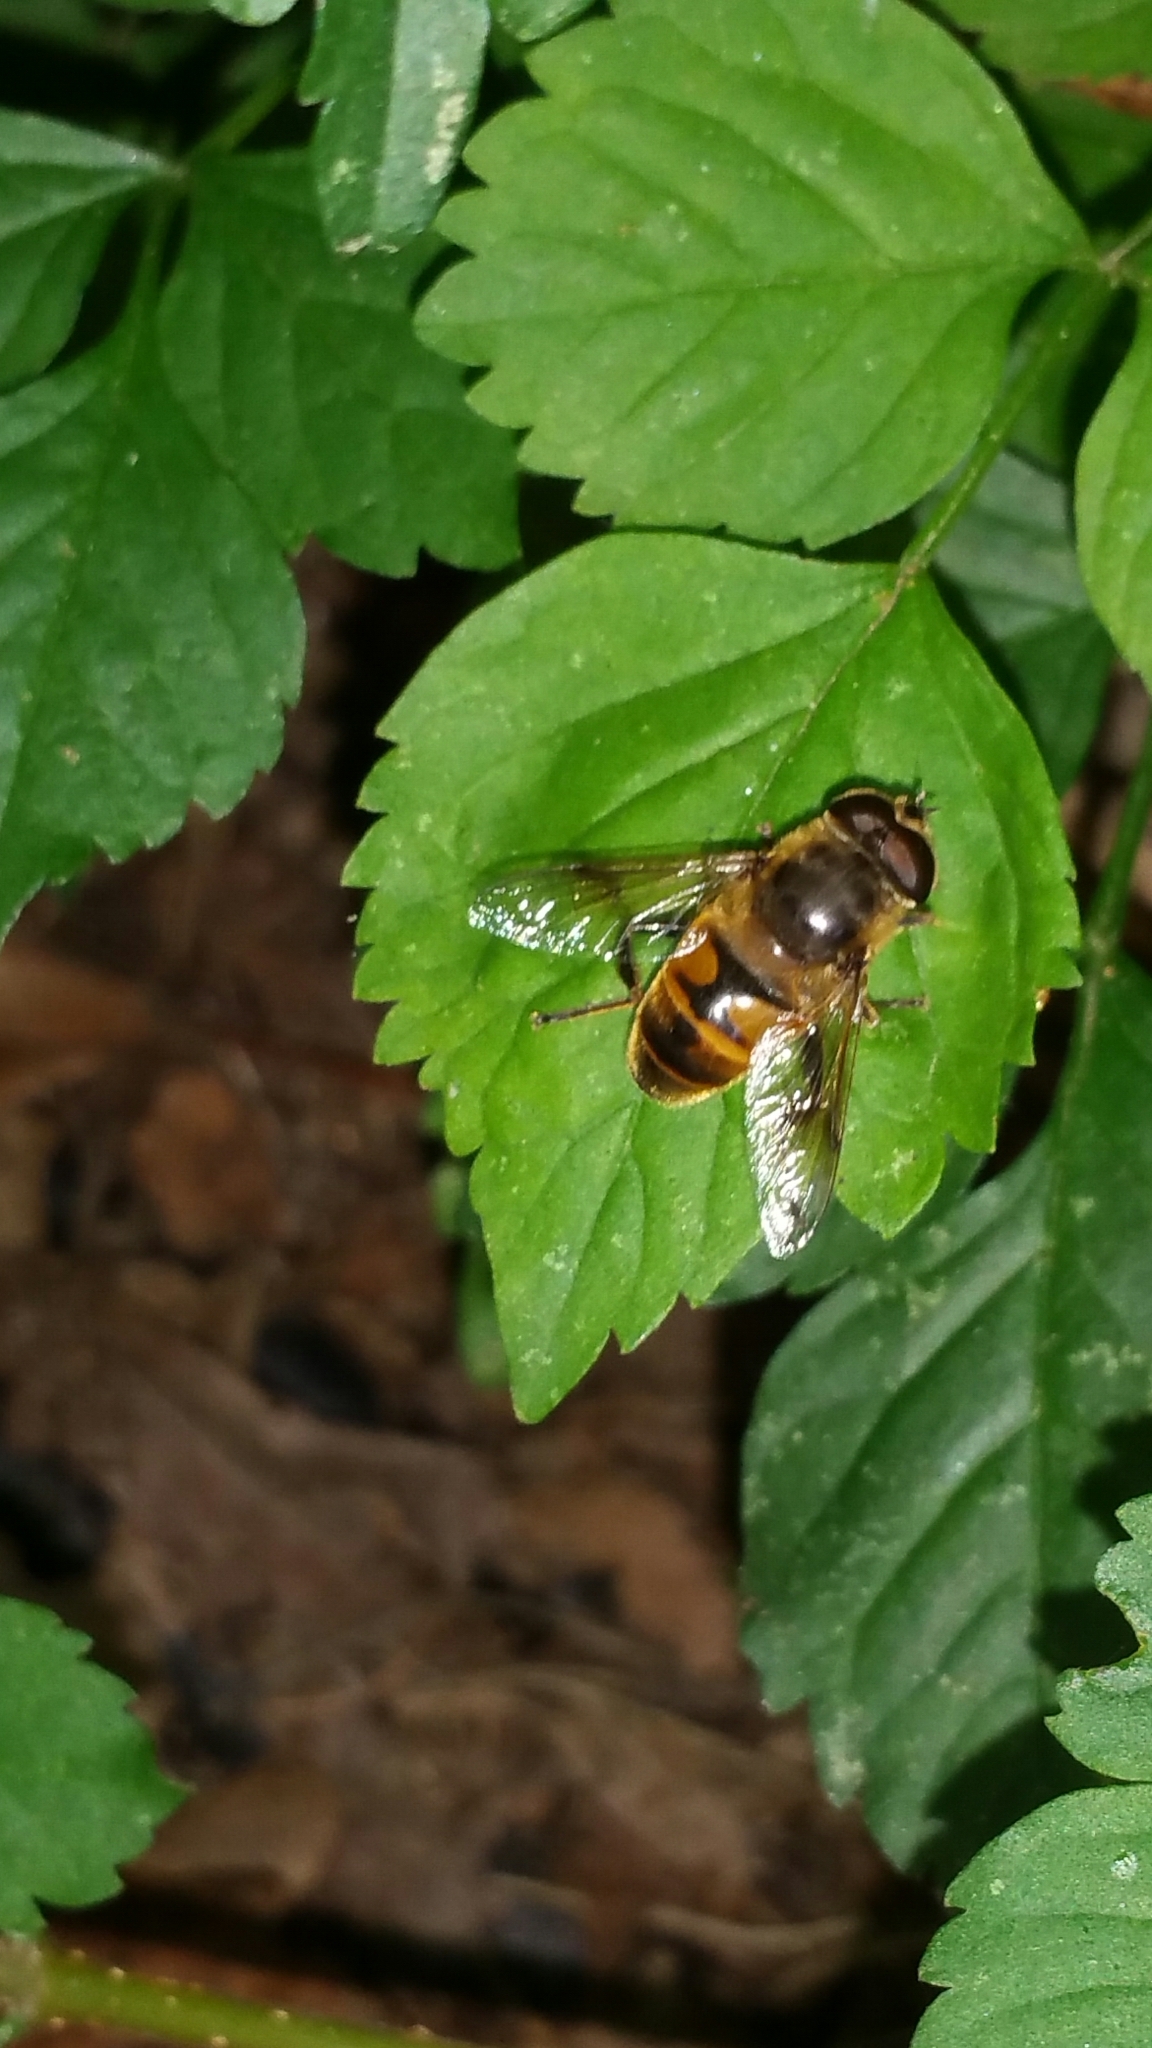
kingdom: Animalia
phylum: Arthropoda
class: Insecta
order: Diptera
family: Syrphidae
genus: Eristalis
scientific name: Eristalis tenax
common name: Drone fly
